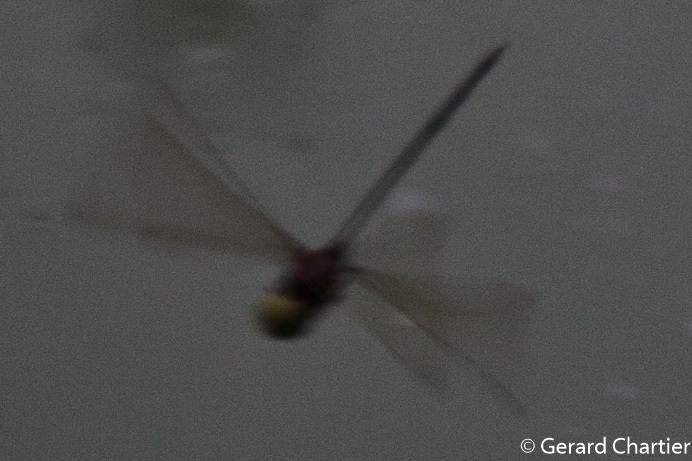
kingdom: Animalia
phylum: Arthropoda
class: Insecta
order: Odonata
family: Libellulidae
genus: Zyxomma
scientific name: Zyxomma petiolatum
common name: Dingy dusk-darter
